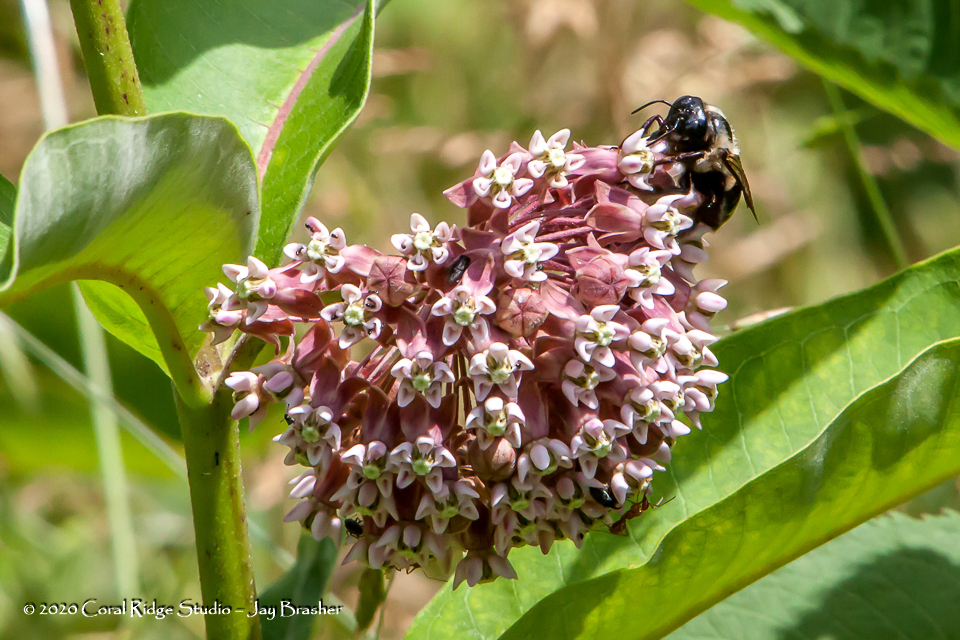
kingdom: Plantae
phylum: Tracheophyta
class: Magnoliopsida
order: Gentianales
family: Apocynaceae
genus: Asclepias
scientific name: Asclepias syriaca
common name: Common milkweed
